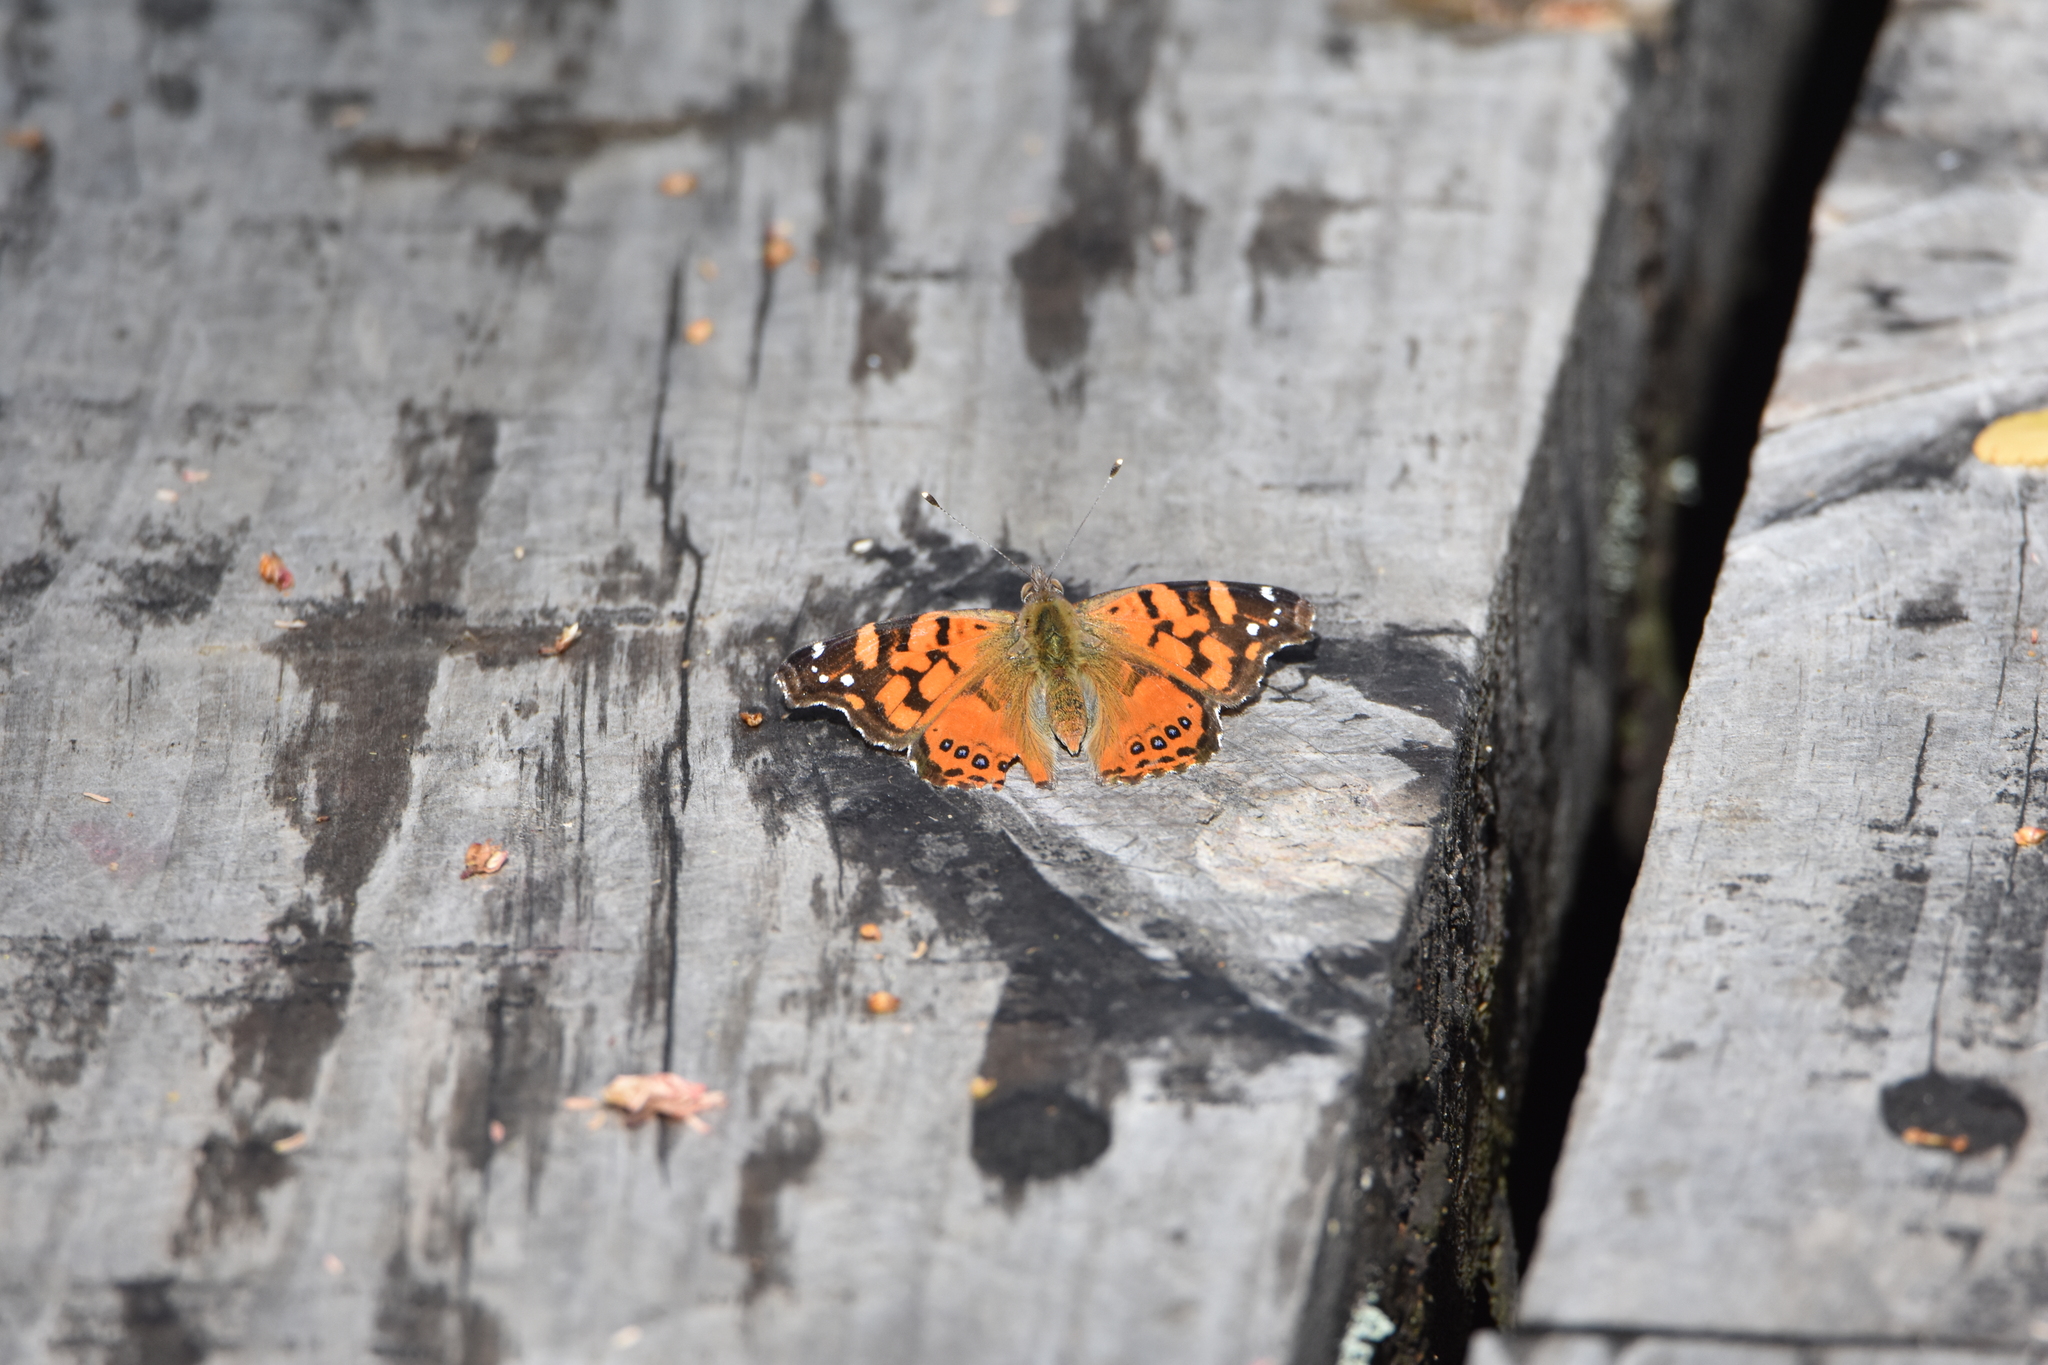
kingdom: Animalia
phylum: Arthropoda
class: Insecta
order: Lepidoptera
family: Nymphalidae
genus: Vanessa
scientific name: Vanessa carye
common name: Subtropical lady
